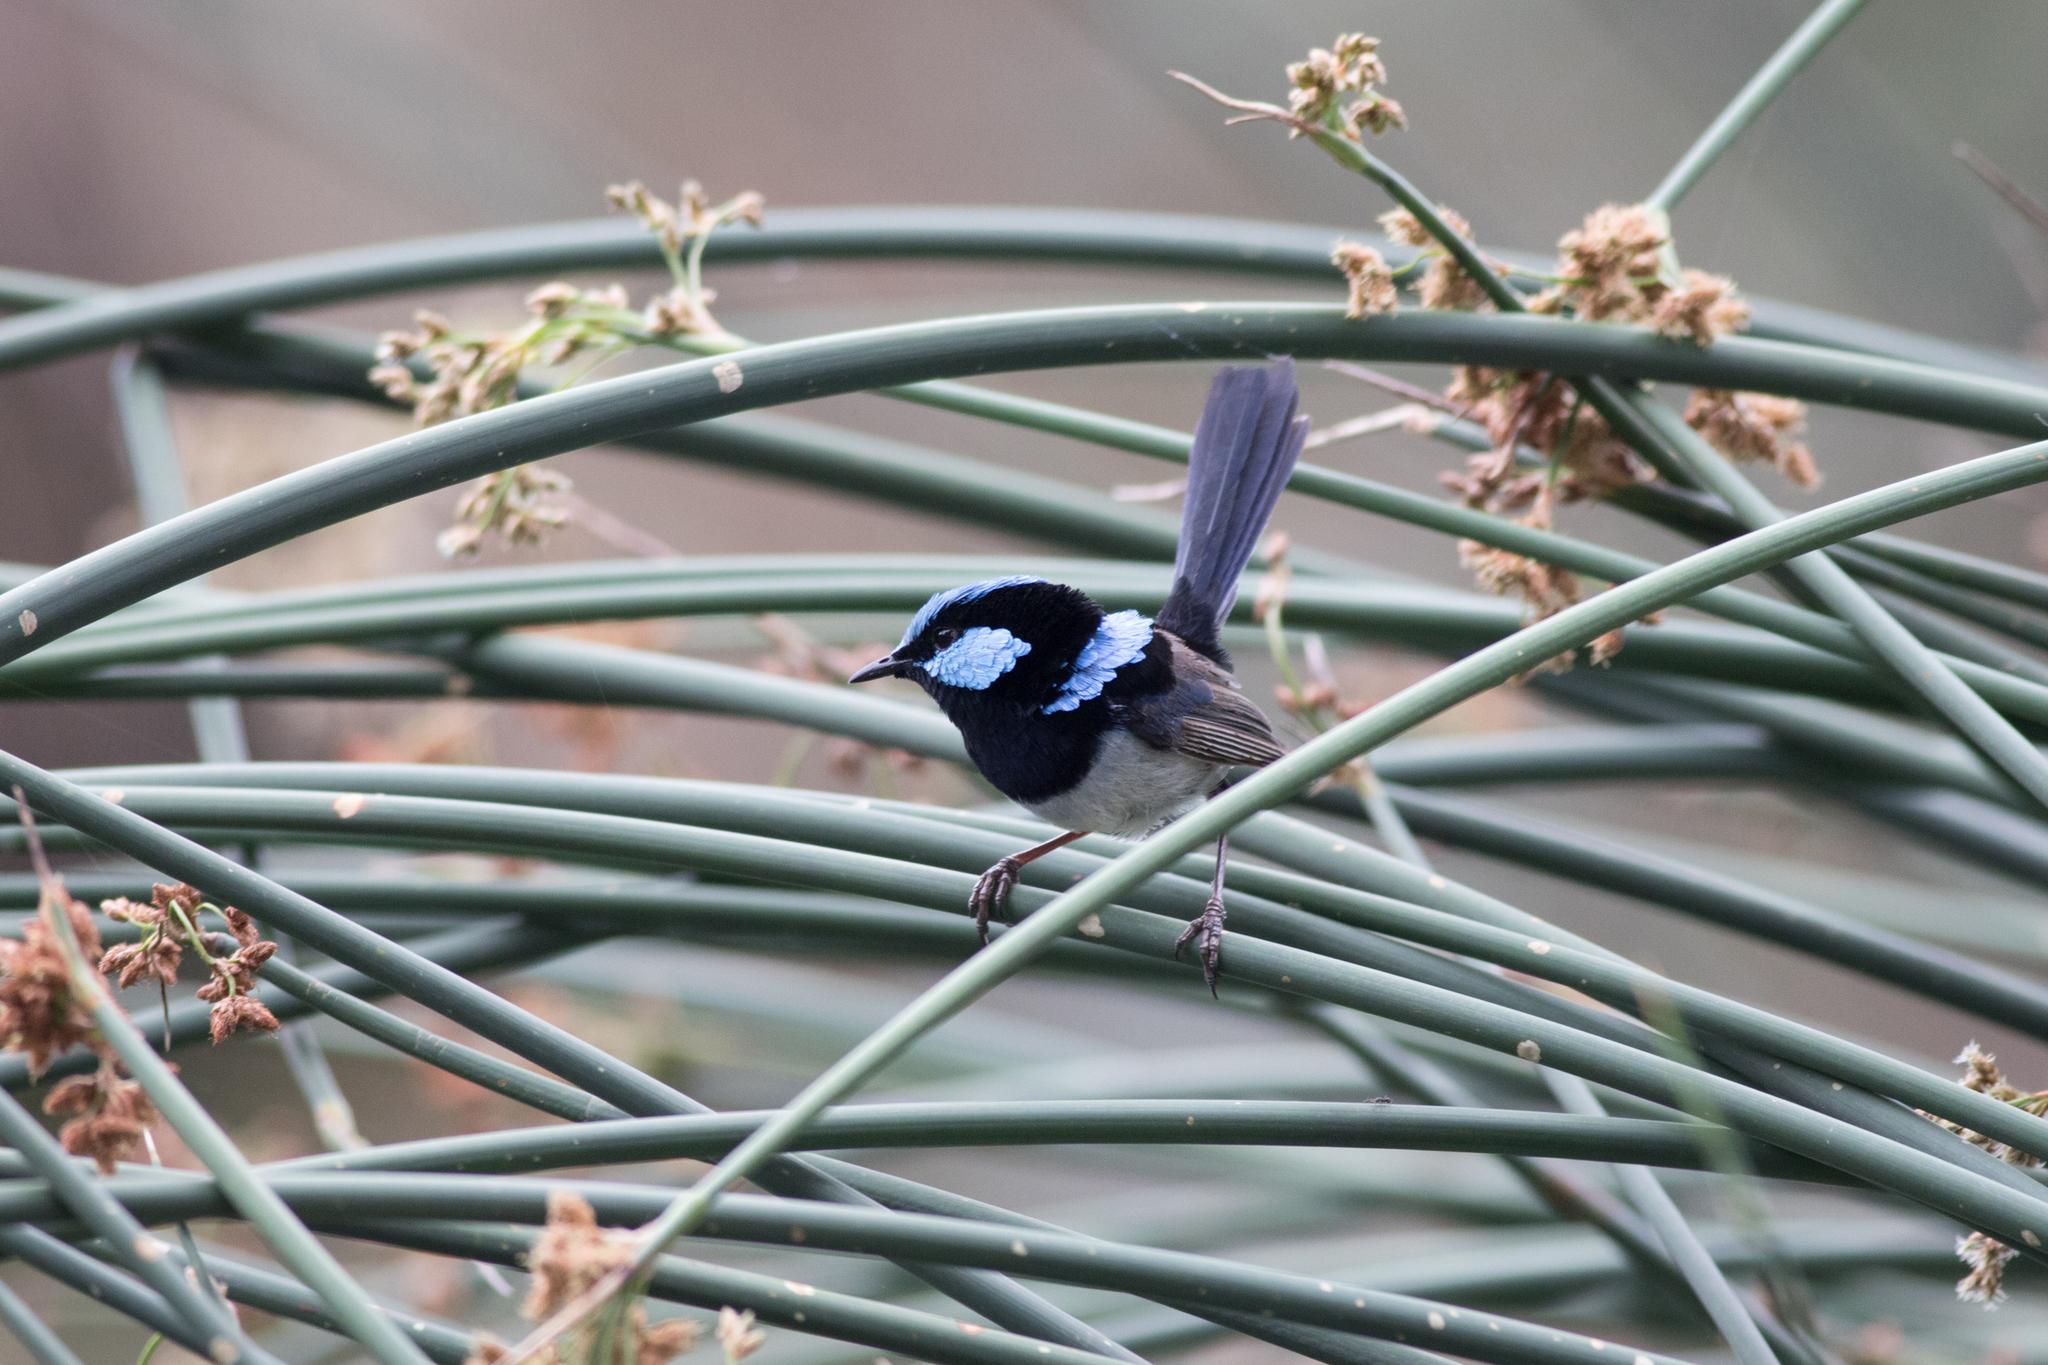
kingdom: Animalia
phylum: Chordata
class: Aves
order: Passeriformes
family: Maluridae
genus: Malurus
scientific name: Malurus cyaneus
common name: Superb fairywren
